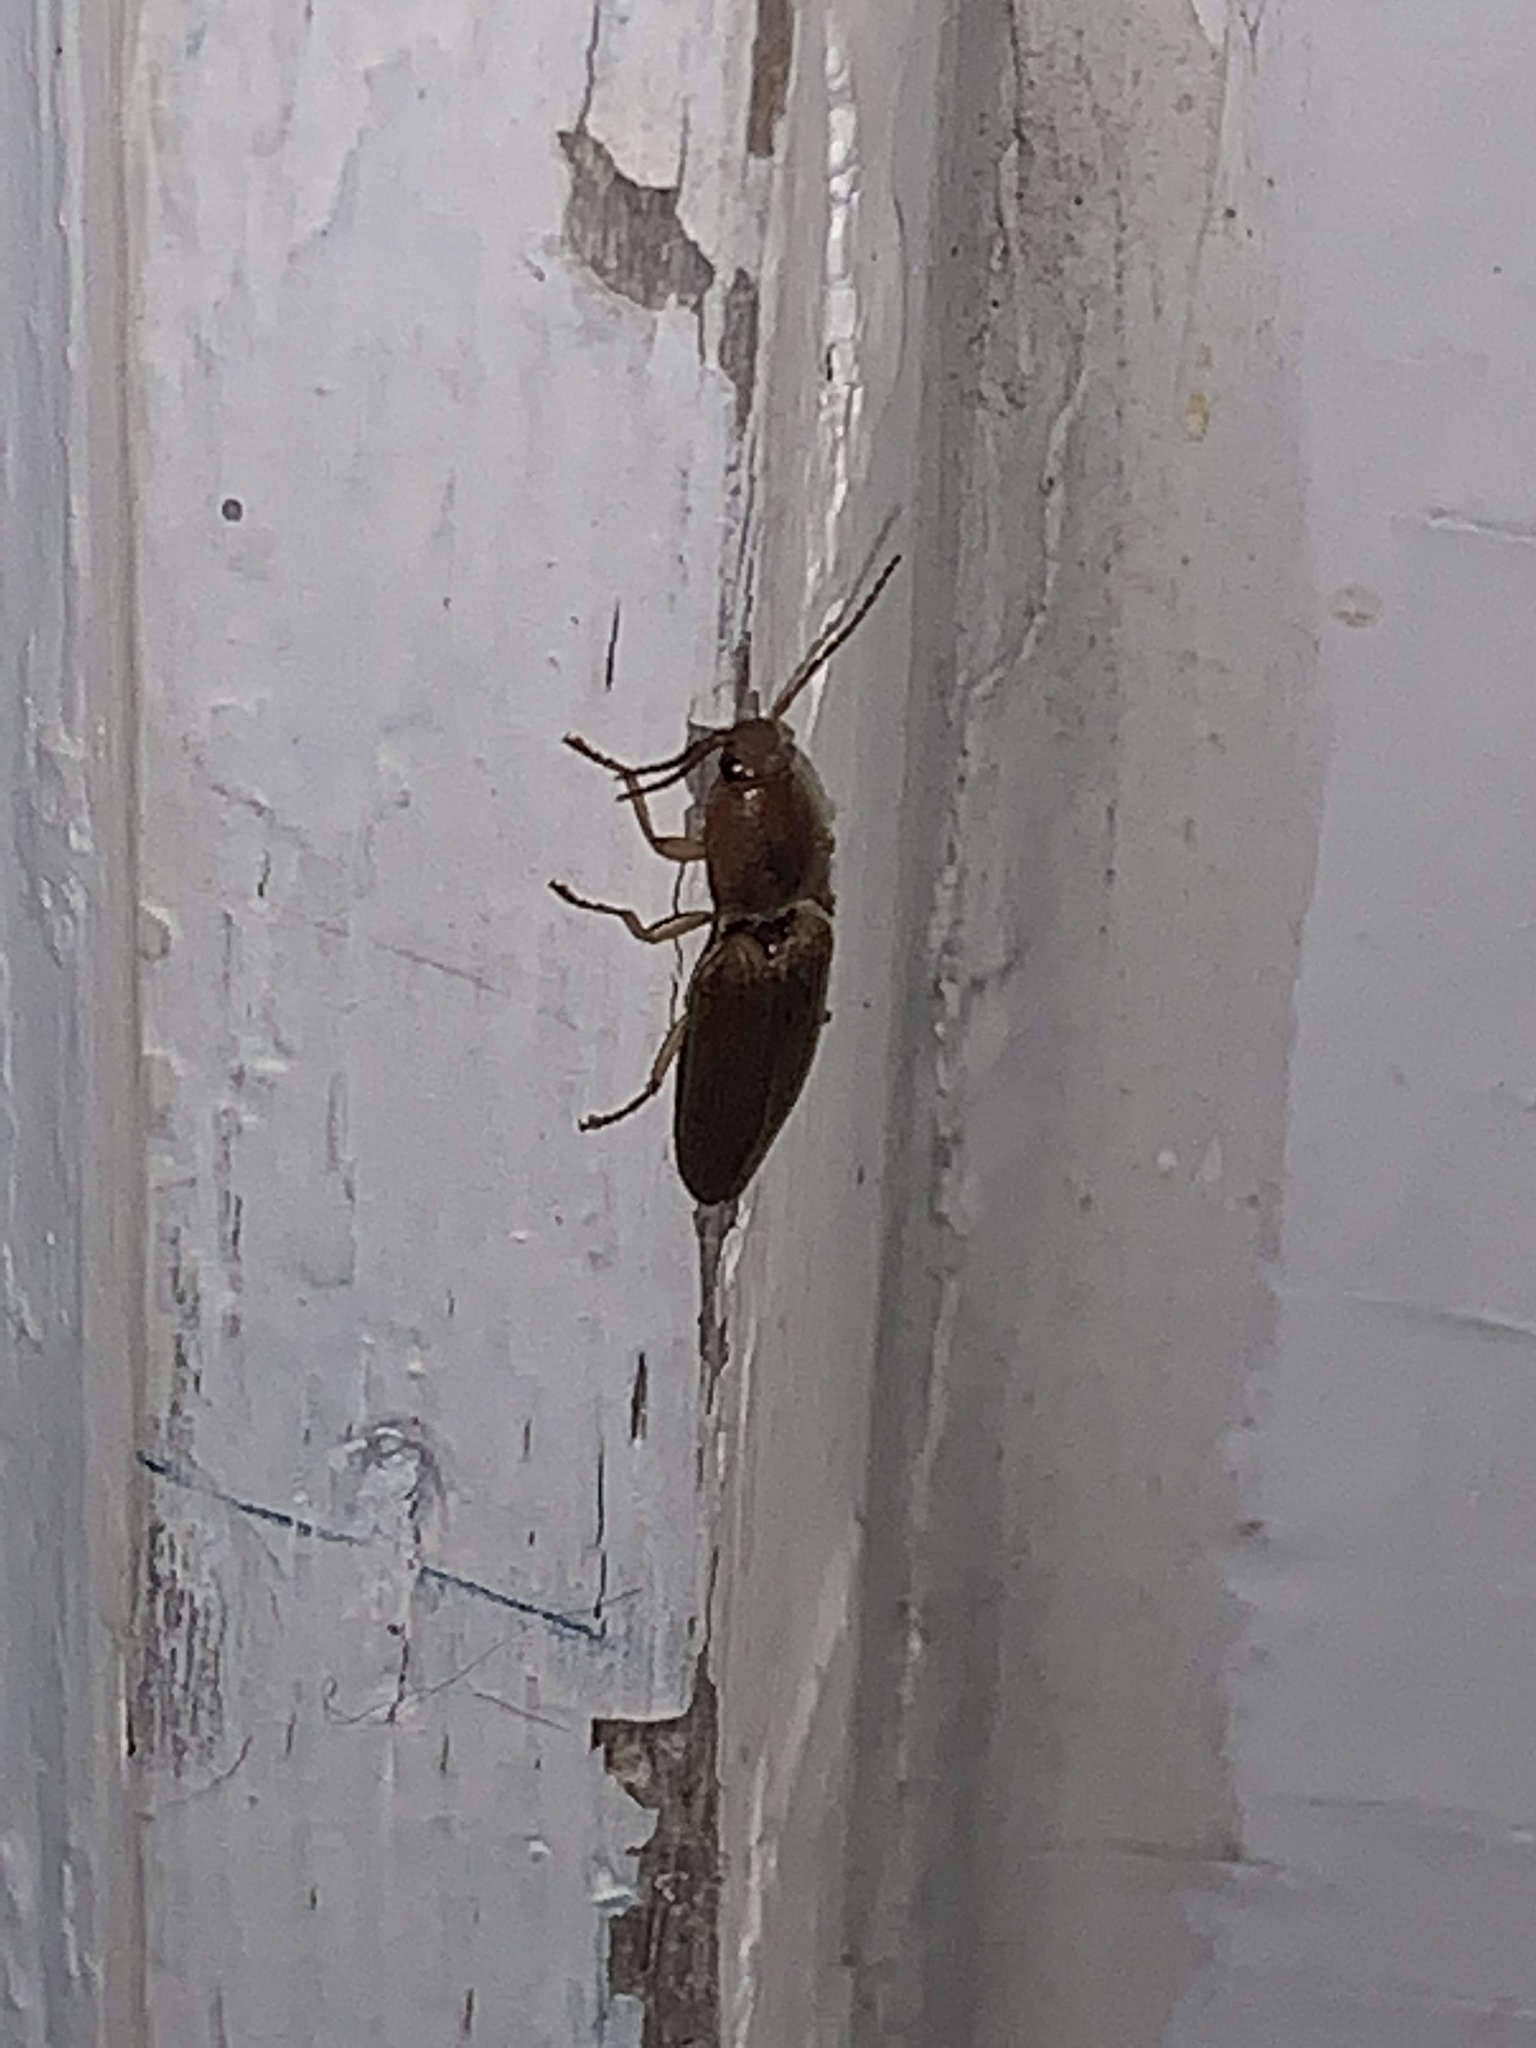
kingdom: Animalia
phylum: Arthropoda
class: Insecta
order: Coleoptera
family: Elateridae
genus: Monocrepidius
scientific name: Monocrepidius lividus
